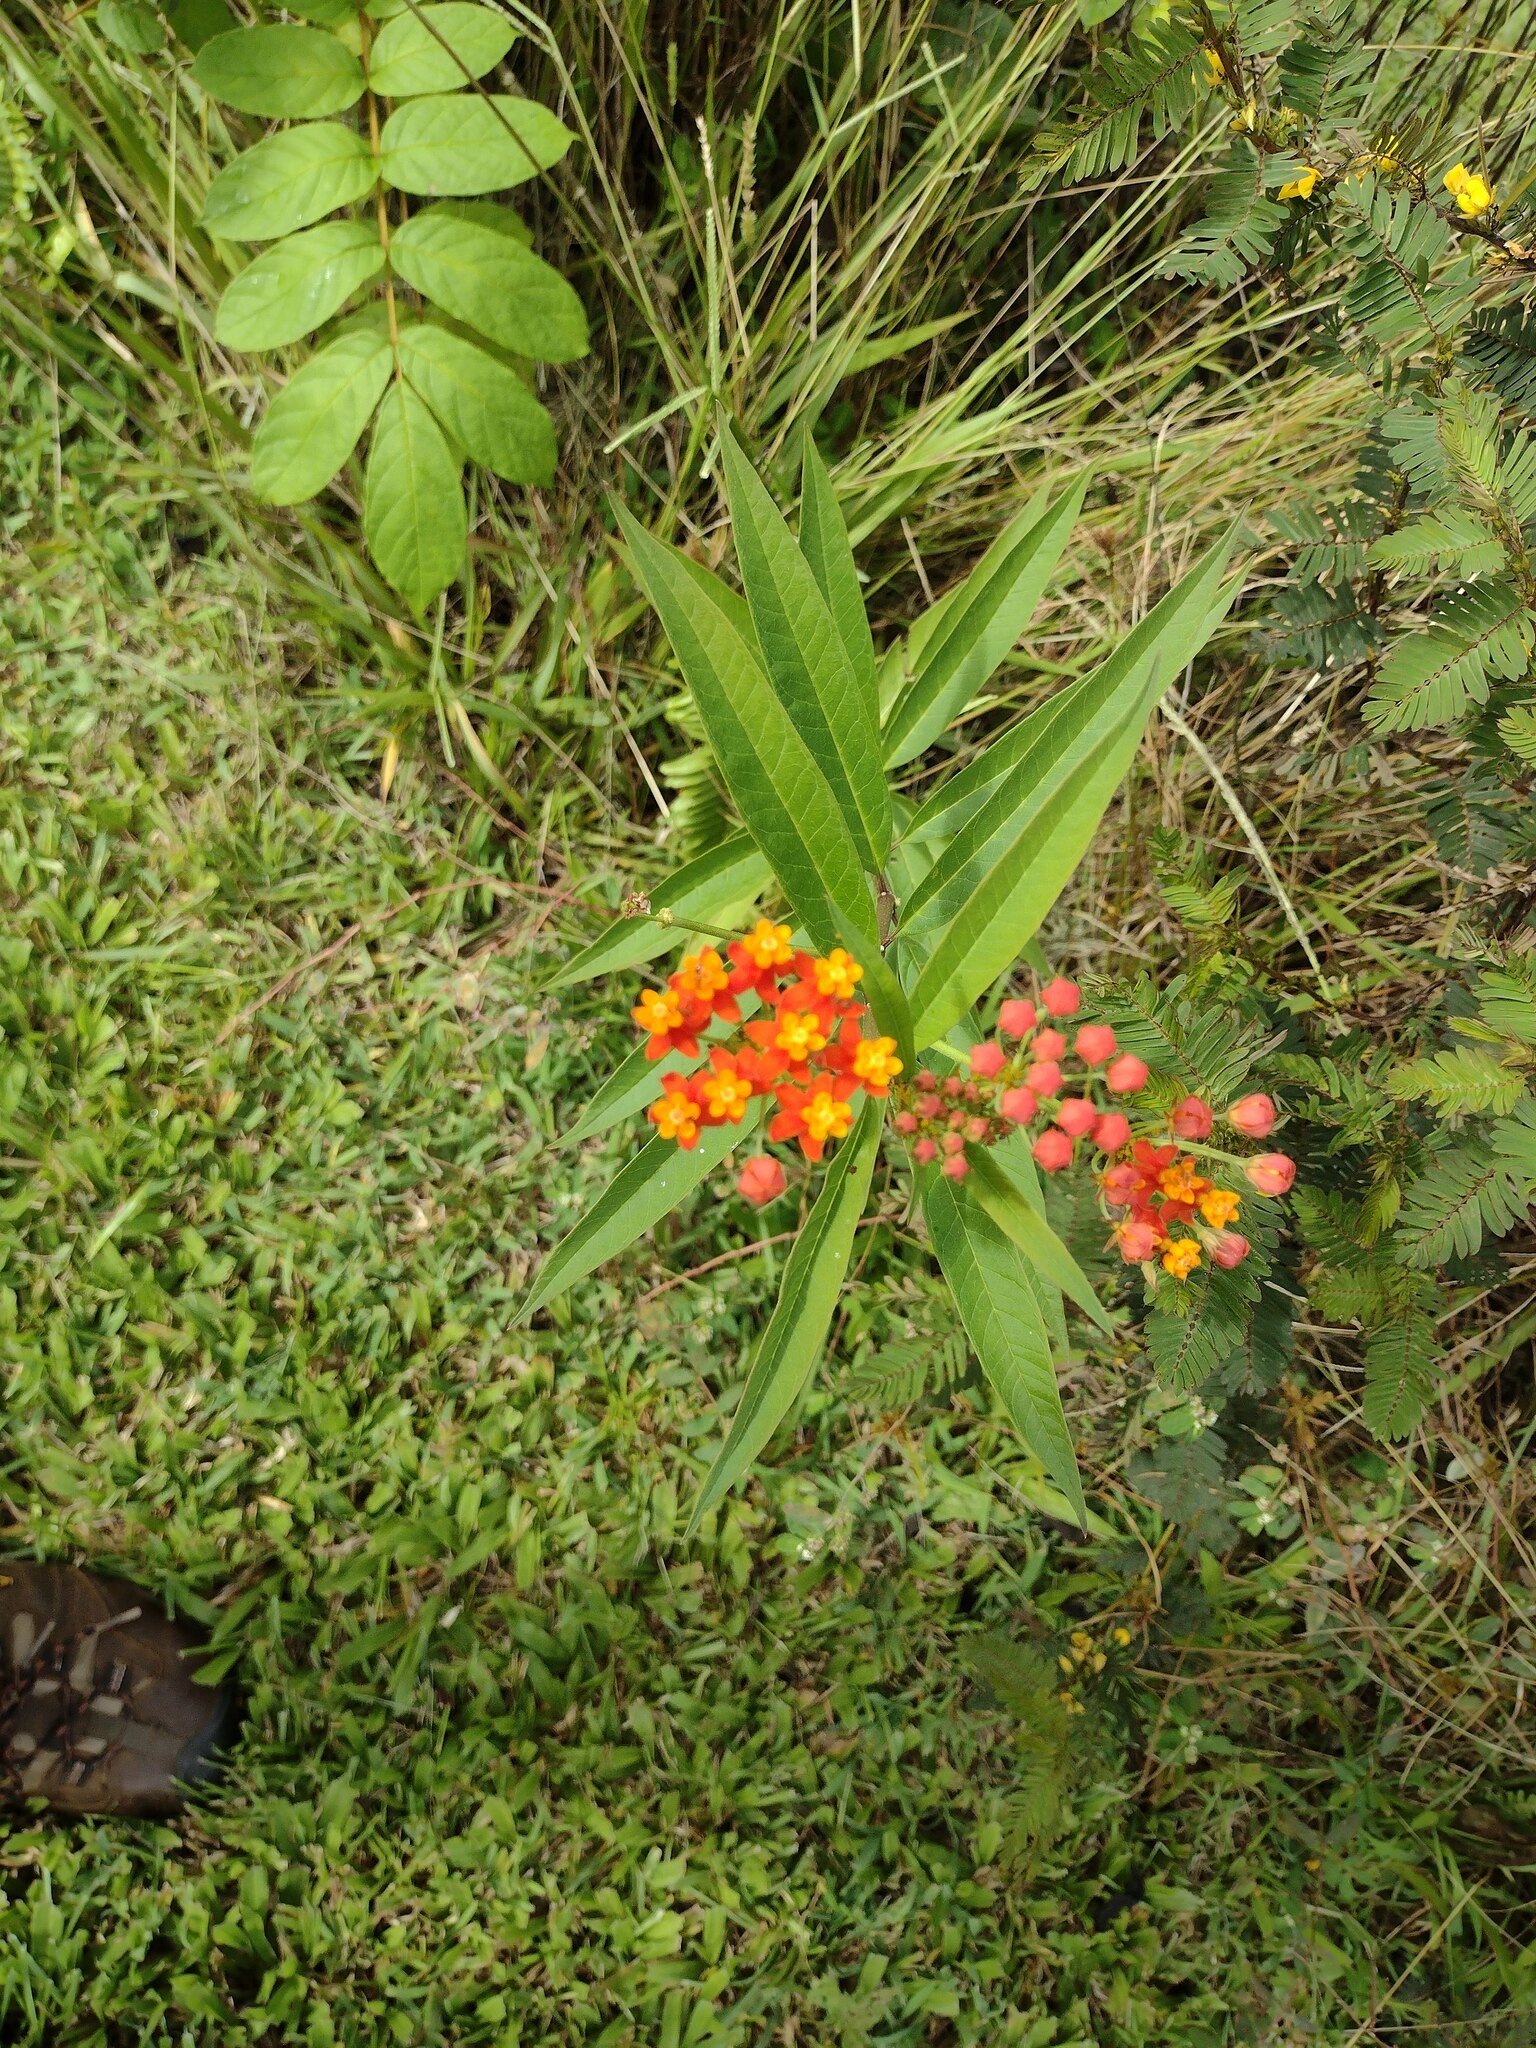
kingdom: Plantae
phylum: Tracheophyta
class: Magnoliopsida
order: Gentianales
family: Apocynaceae
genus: Asclepias
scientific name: Asclepias curassavica
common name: Bloodflower
